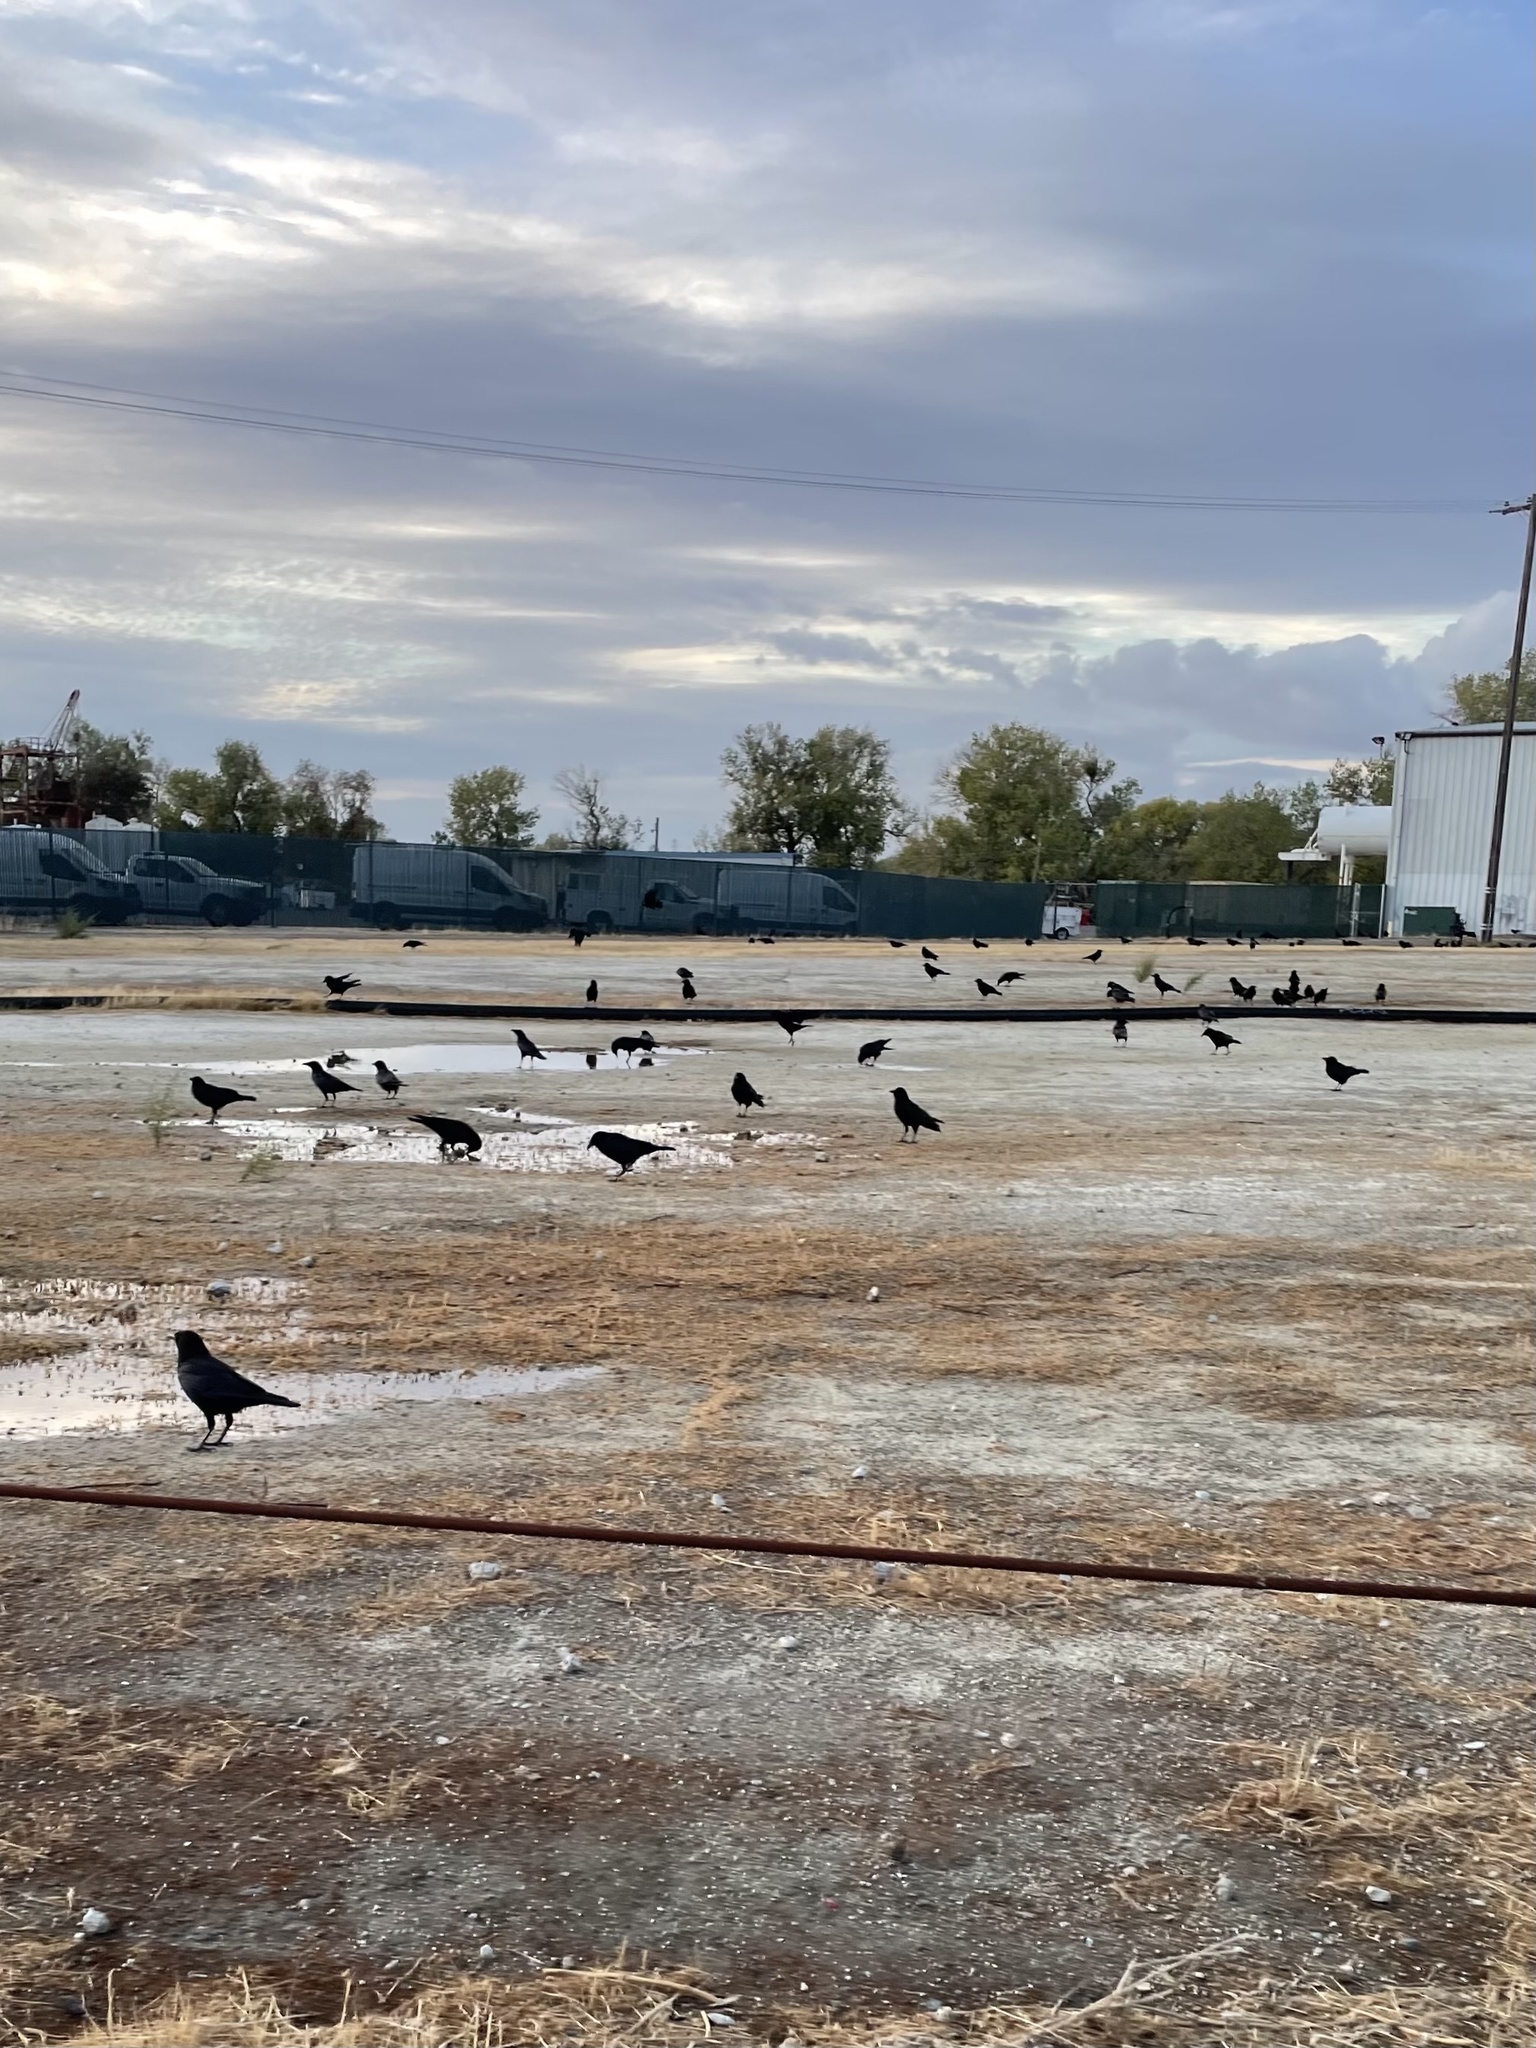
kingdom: Animalia
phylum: Chordata
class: Aves
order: Passeriformes
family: Corvidae
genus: Corvus
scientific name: Corvus brachyrhynchos
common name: American crow
